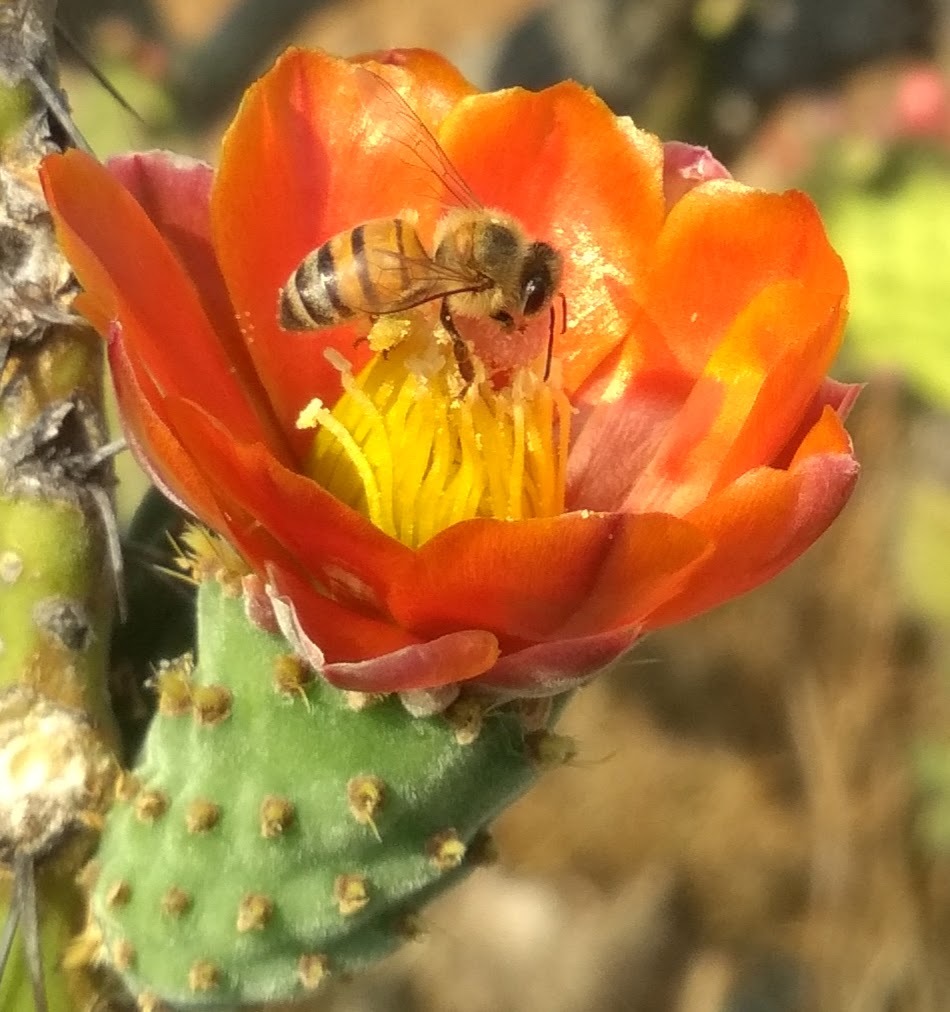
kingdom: Animalia
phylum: Arthropoda
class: Insecta
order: Hymenoptera
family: Apidae
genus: Apis
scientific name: Apis mellifera
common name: Honey bee
